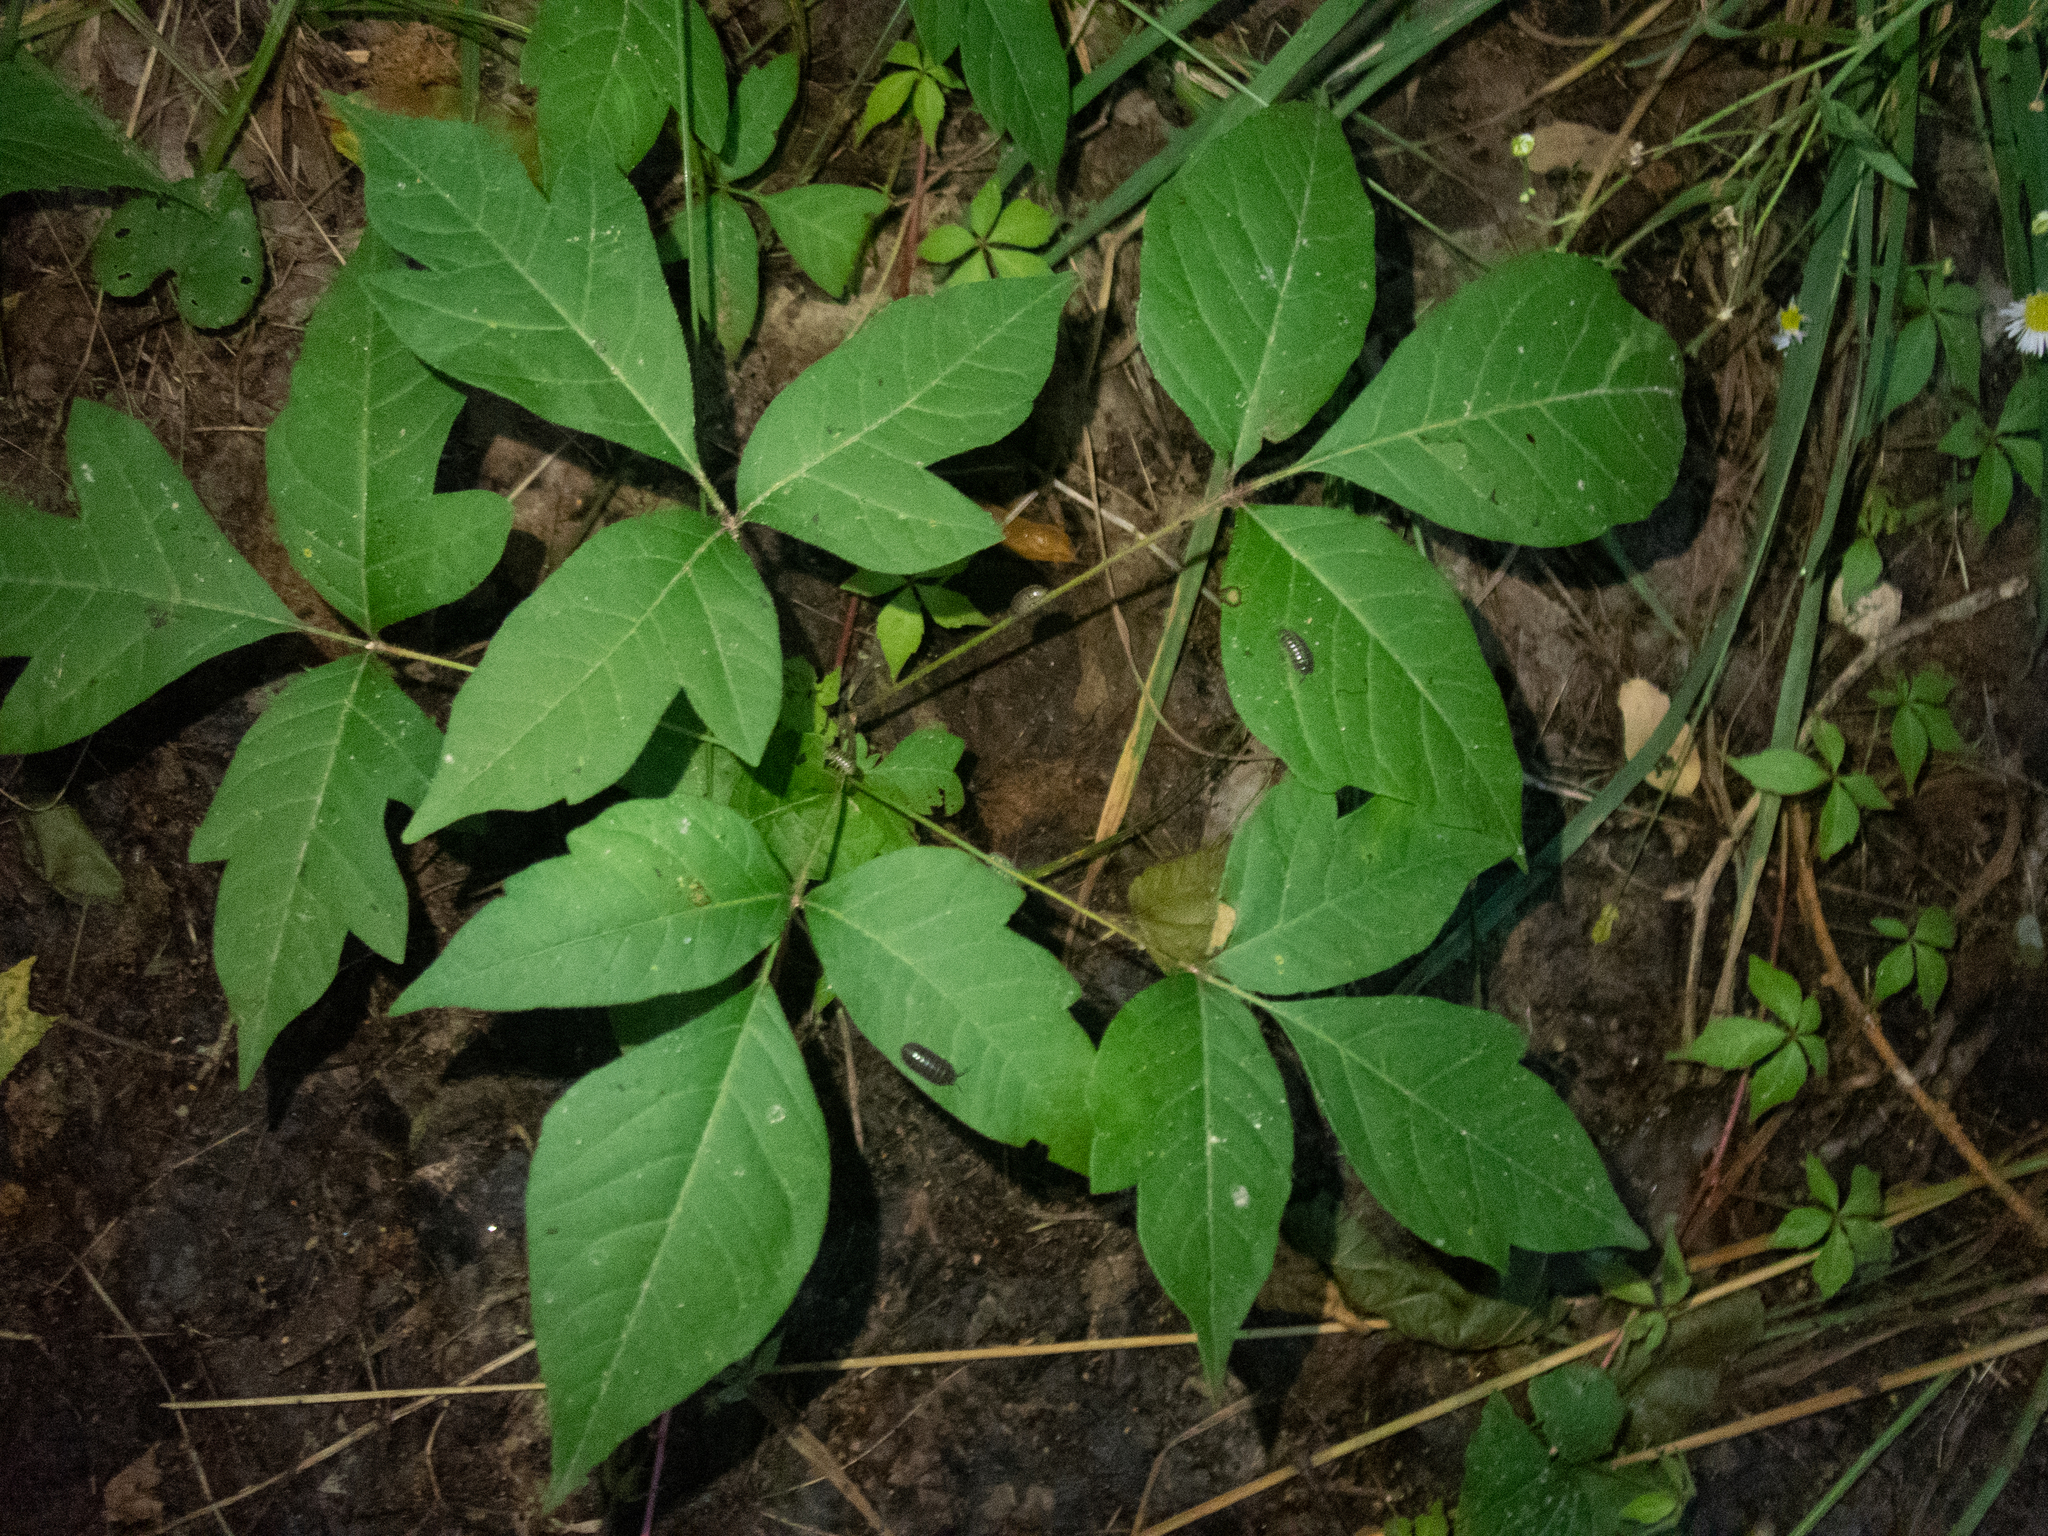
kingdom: Plantae
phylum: Tracheophyta
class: Magnoliopsida
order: Sapindales
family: Anacardiaceae
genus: Toxicodendron
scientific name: Toxicodendron radicans
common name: Poison ivy
